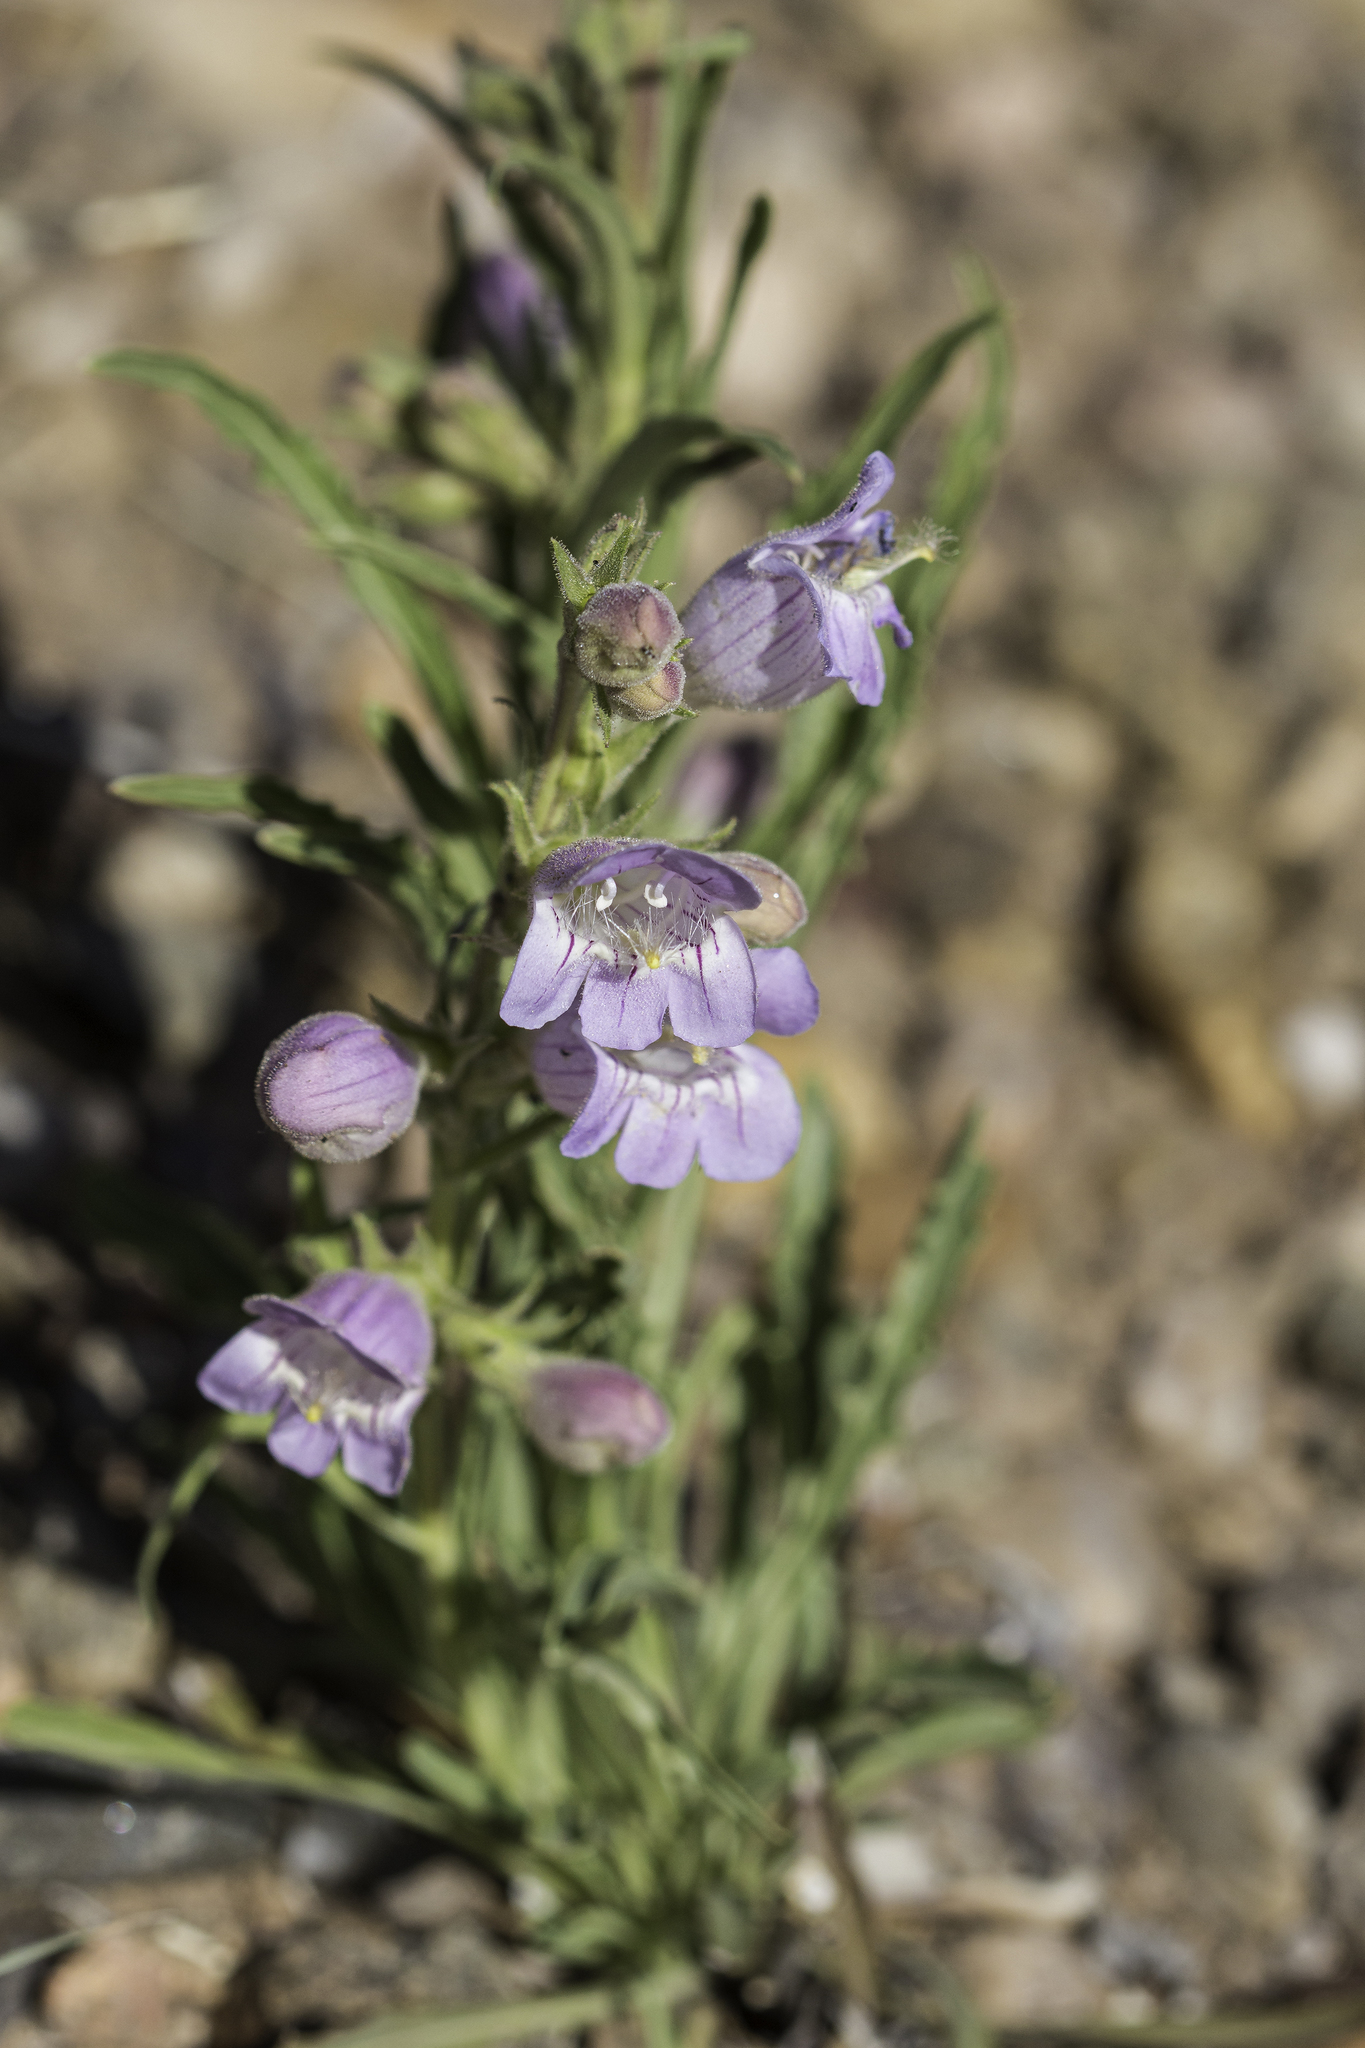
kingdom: Plantae
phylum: Tracheophyta
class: Magnoliopsida
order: Lamiales
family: Plantaginaceae
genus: Penstemon
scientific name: Penstemon jamesii
